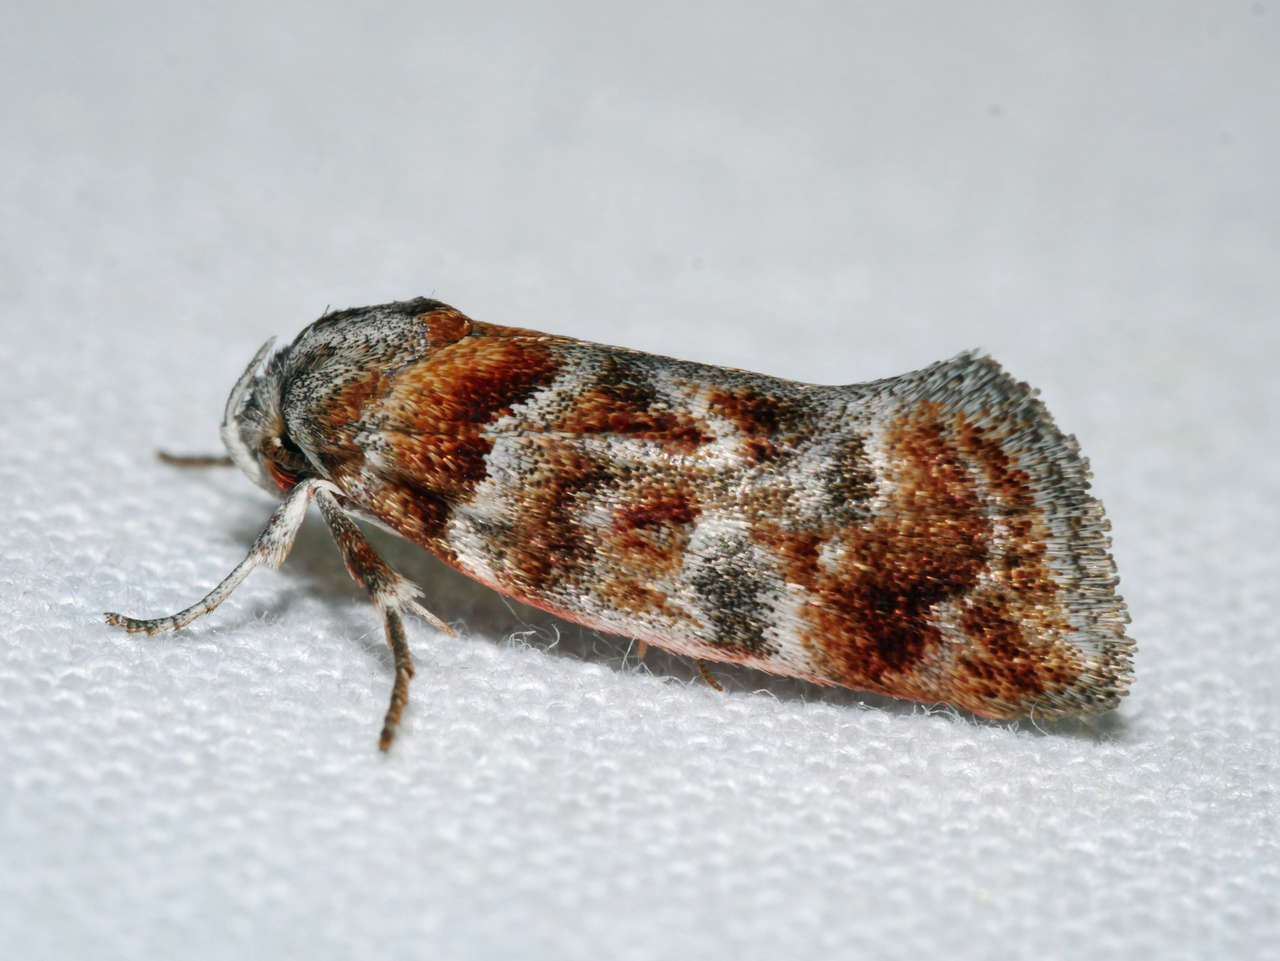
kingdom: Animalia
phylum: Arthropoda
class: Insecta
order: Lepidoptera
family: Oecophoridae
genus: Acmotoma
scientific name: Acmotoma magniferella
